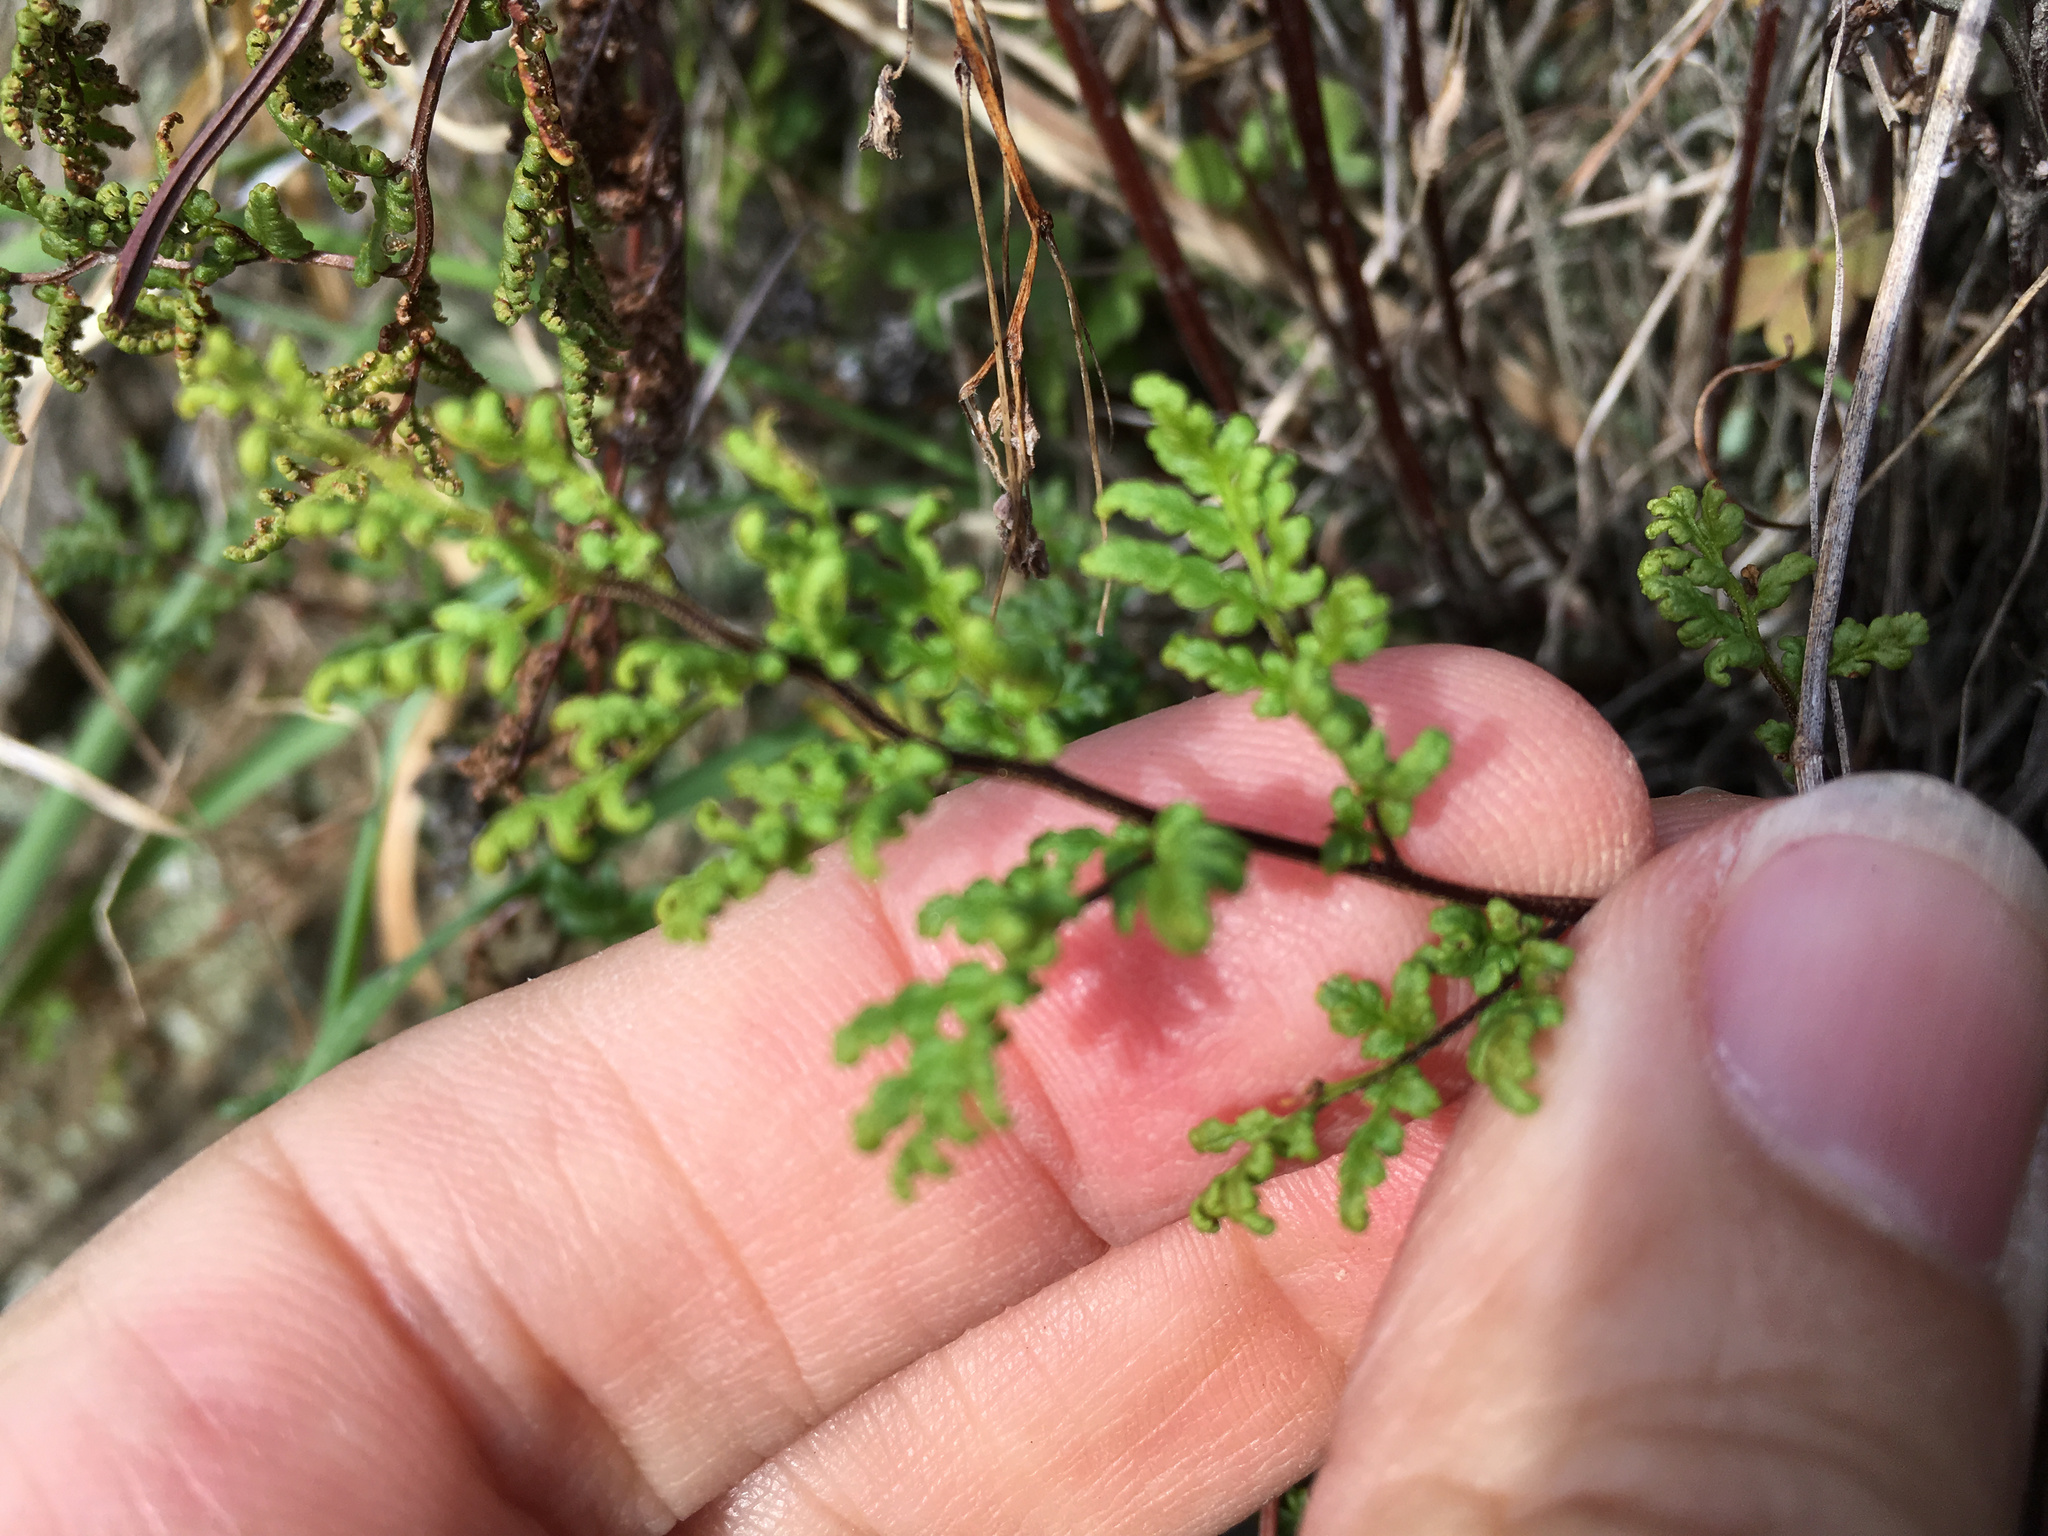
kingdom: Plantae
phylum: Tracheophyta
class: Polypodiopsida
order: Polypodiales
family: Pteridaceae
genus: Cheilanthes
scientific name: Cheilanthes sieberi
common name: Mulga fern
